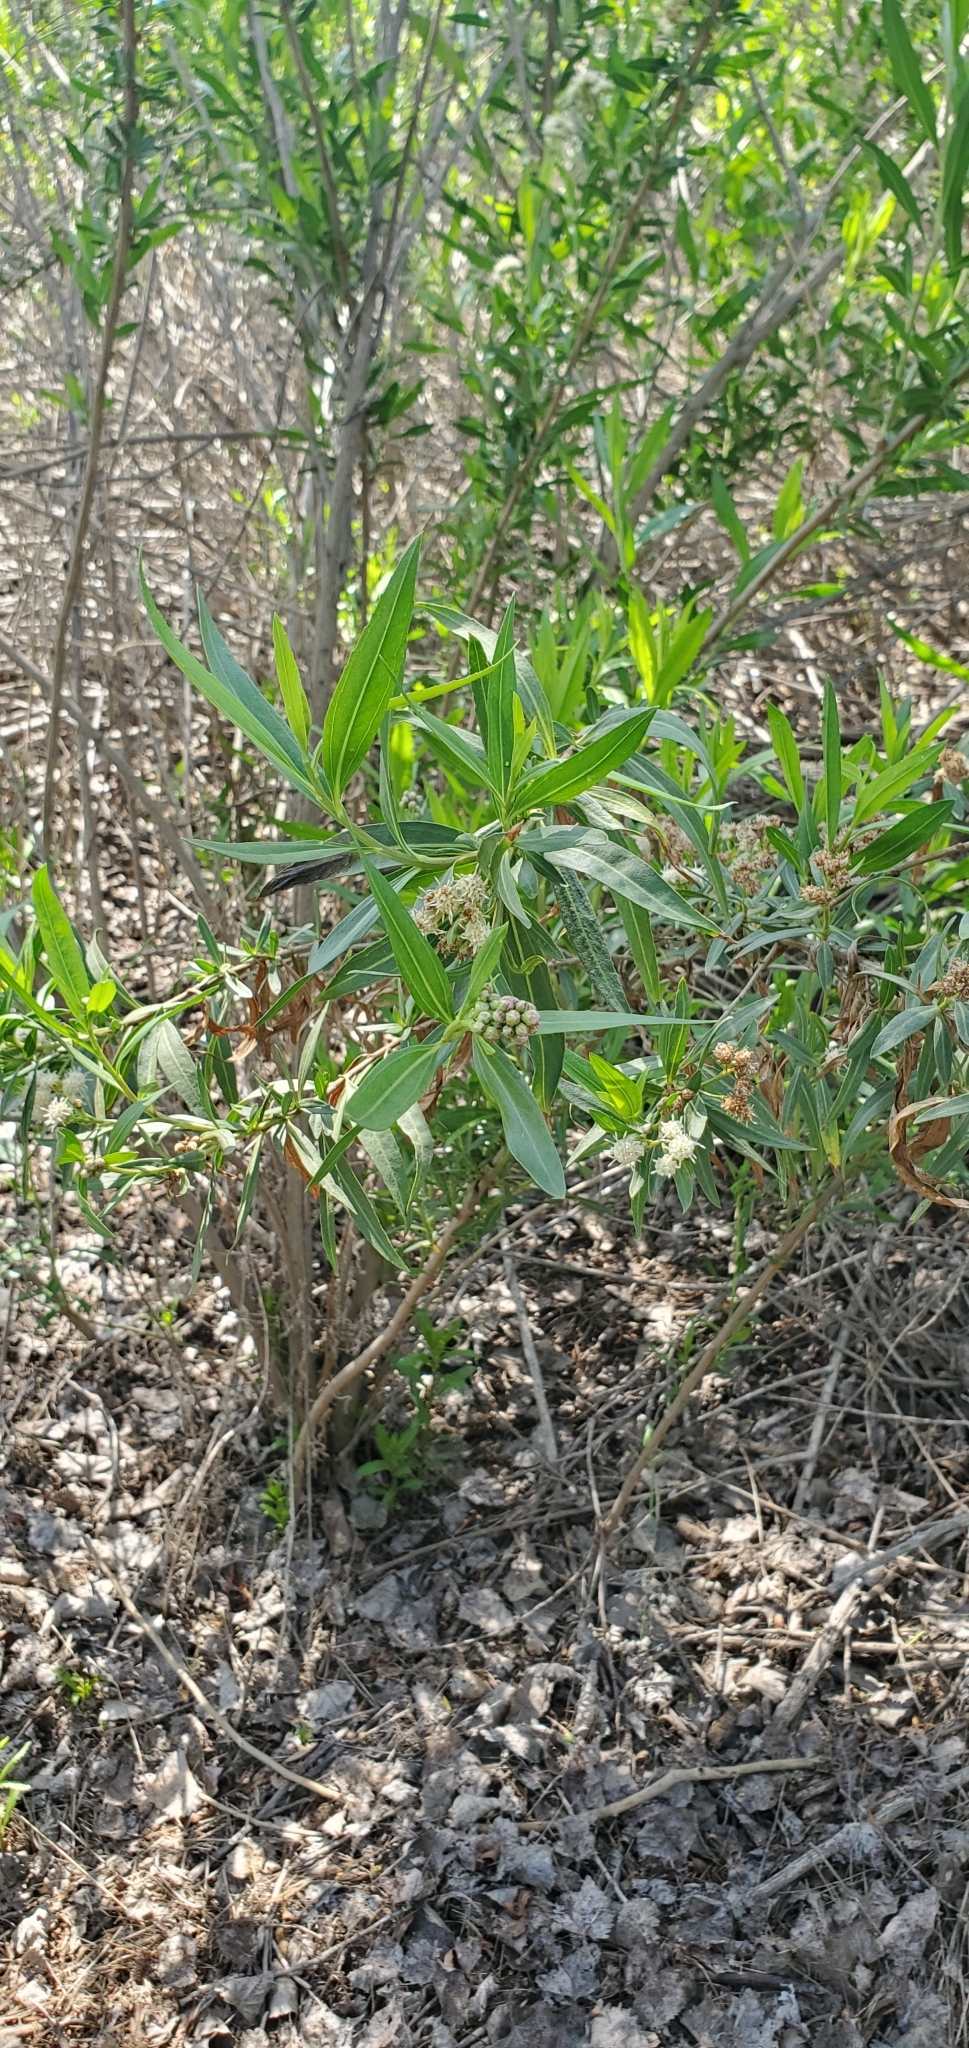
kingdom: Plantae
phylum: Tracheophyta
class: Magnoliopsida
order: Asterales
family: Asteraceae
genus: Baccharis
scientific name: Baccharis salicifolia
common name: Sticky baccharis
